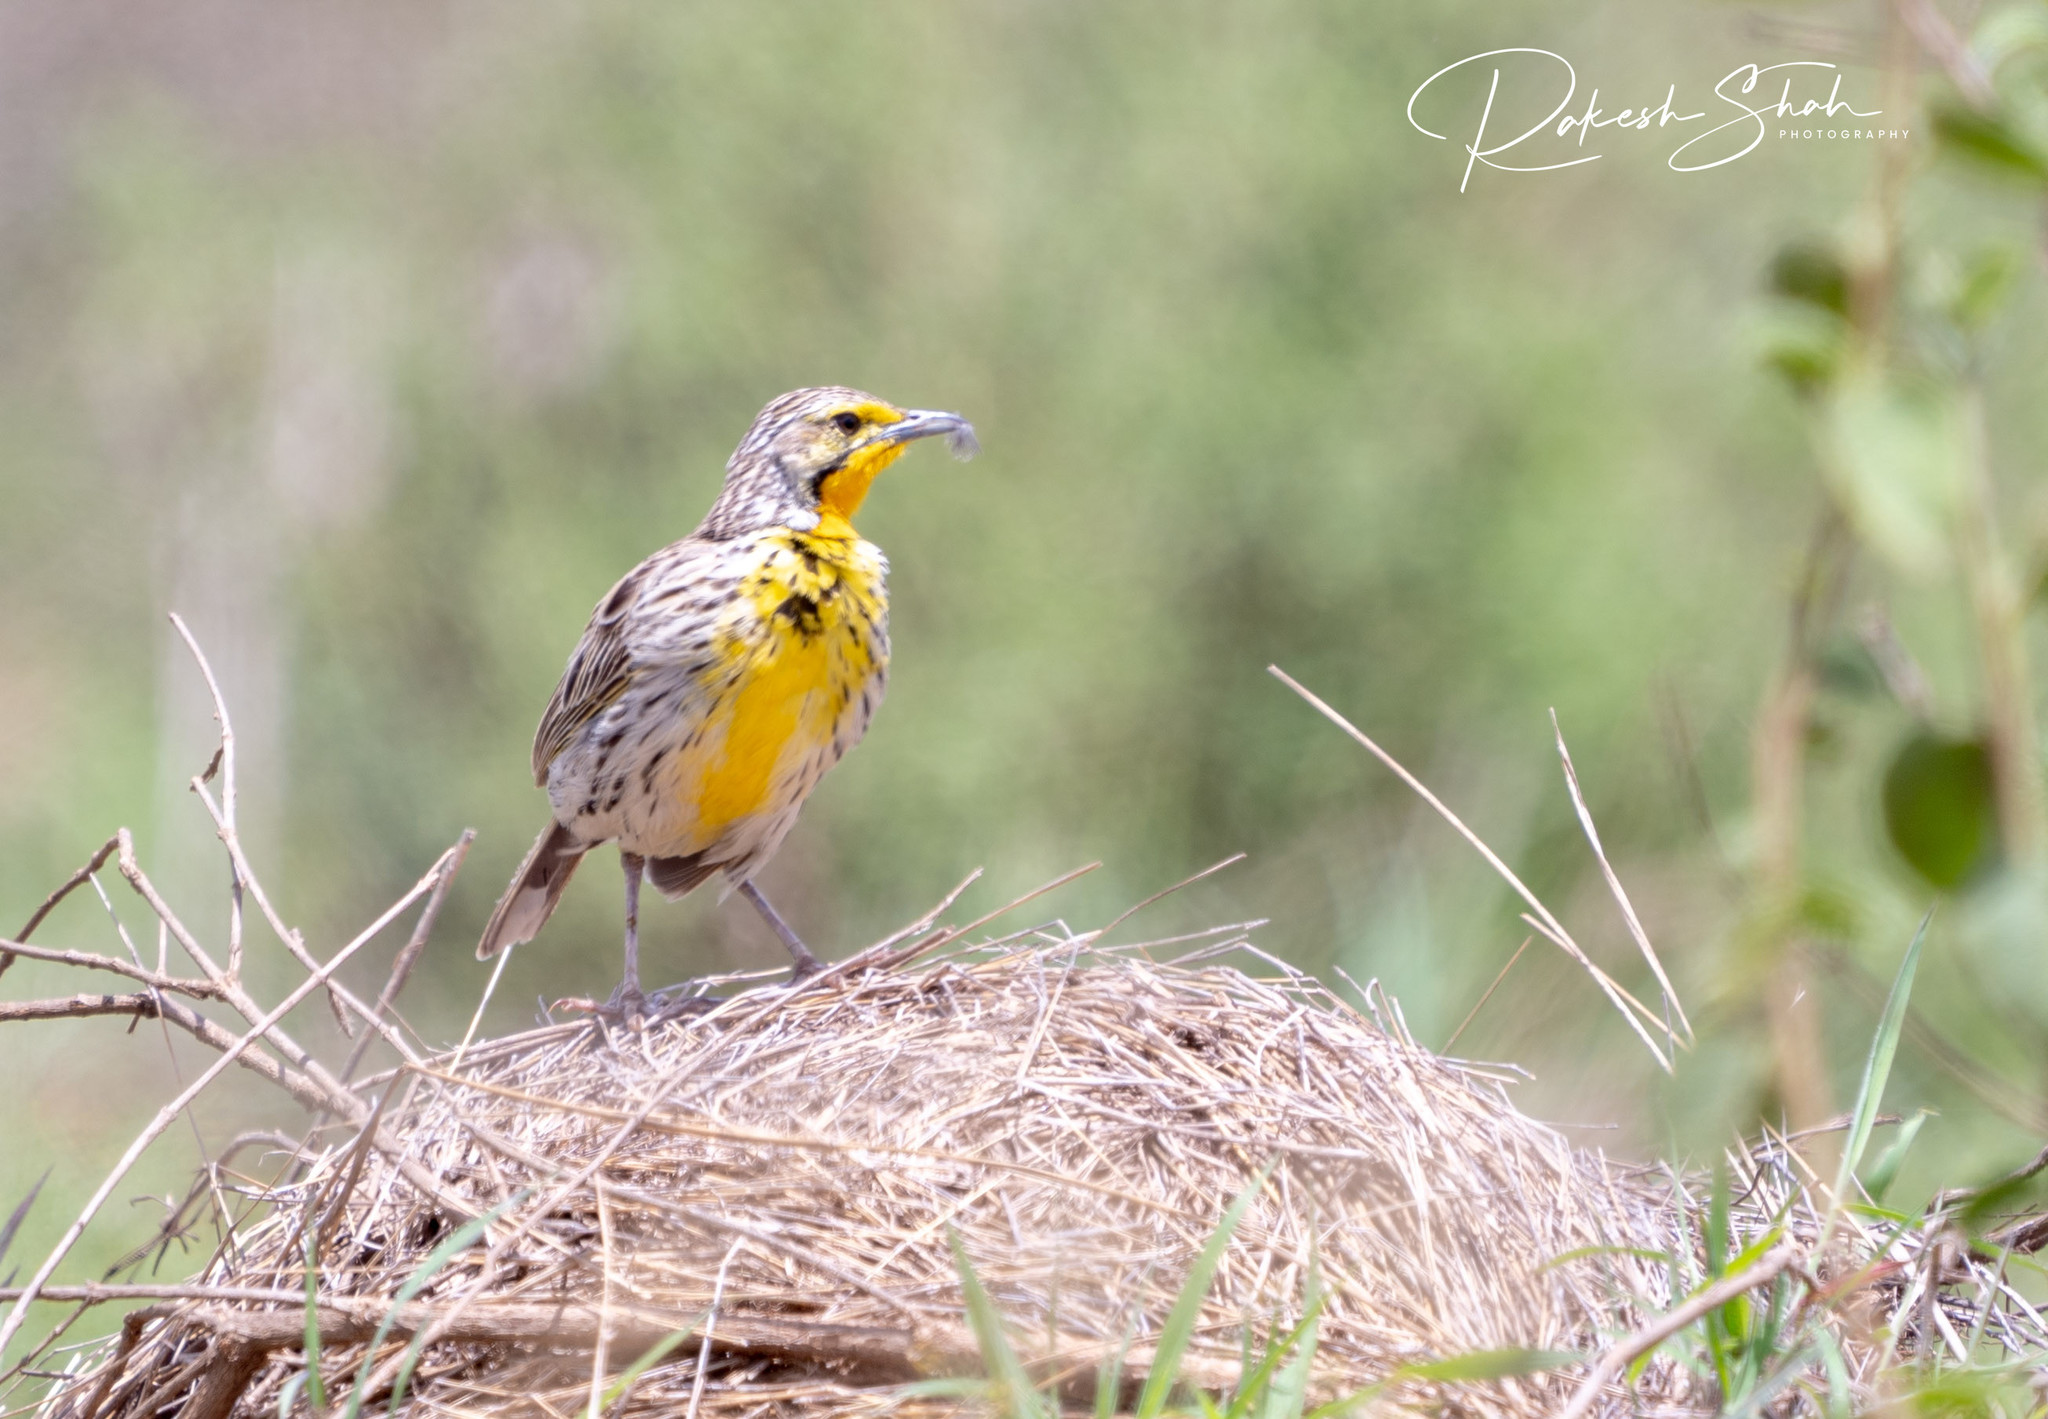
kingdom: Animalia
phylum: Chordata
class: Aves
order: Passeriformes
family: Motacillidae
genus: Macronyx
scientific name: Macronyx aurantiigula
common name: Pangani longclaw
